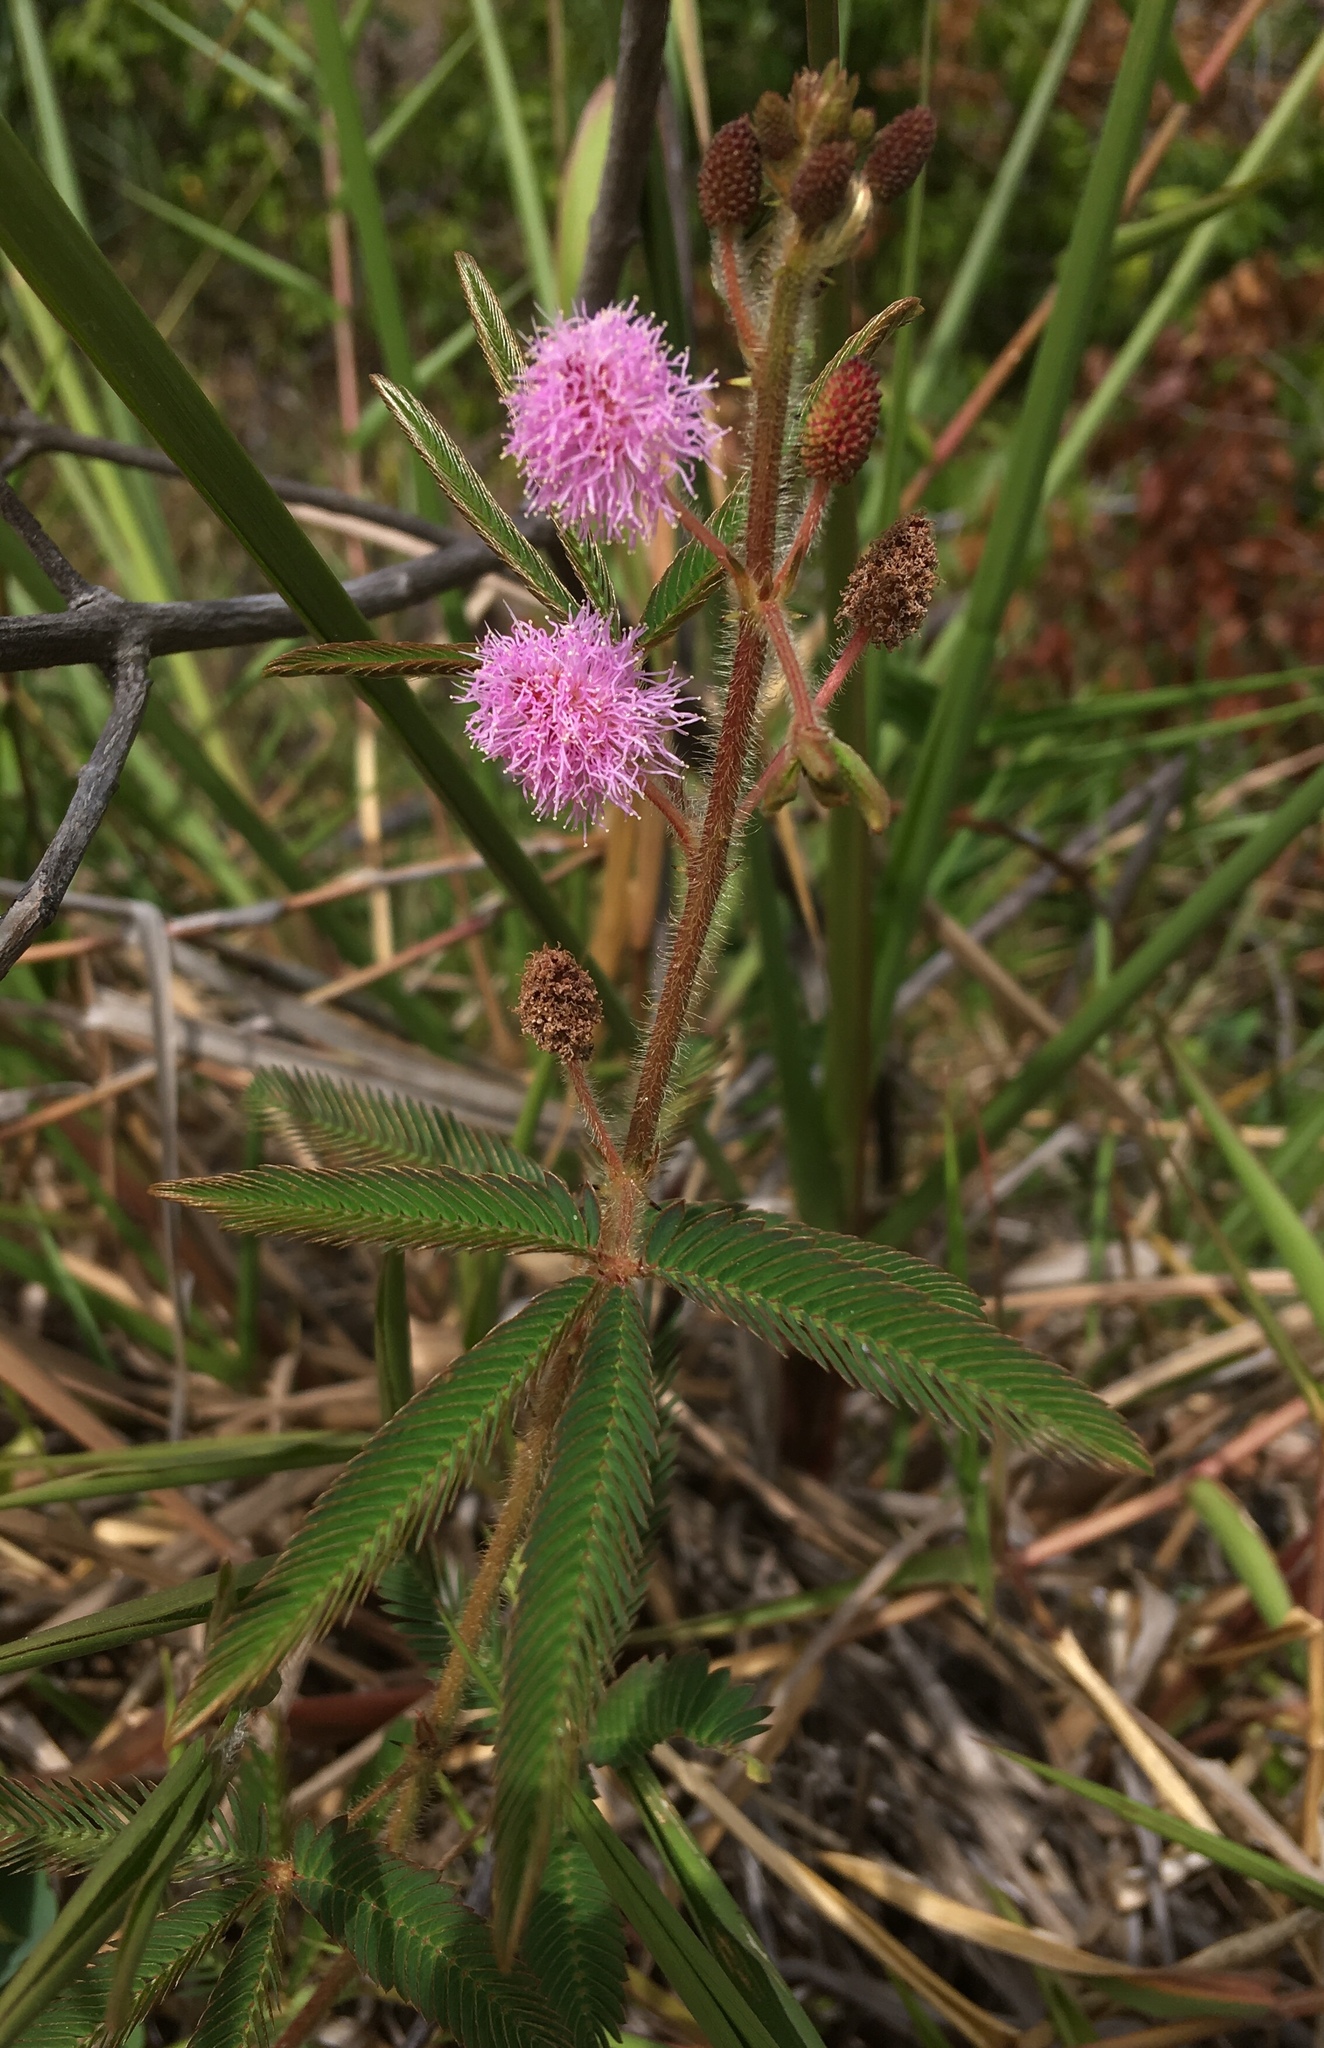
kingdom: Plantae
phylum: Tracheophyta
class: Magnoliopsida
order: Fabales
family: Fabaceae
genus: Mimosa
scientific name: Mimosa pudica
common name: Sensitive plant
